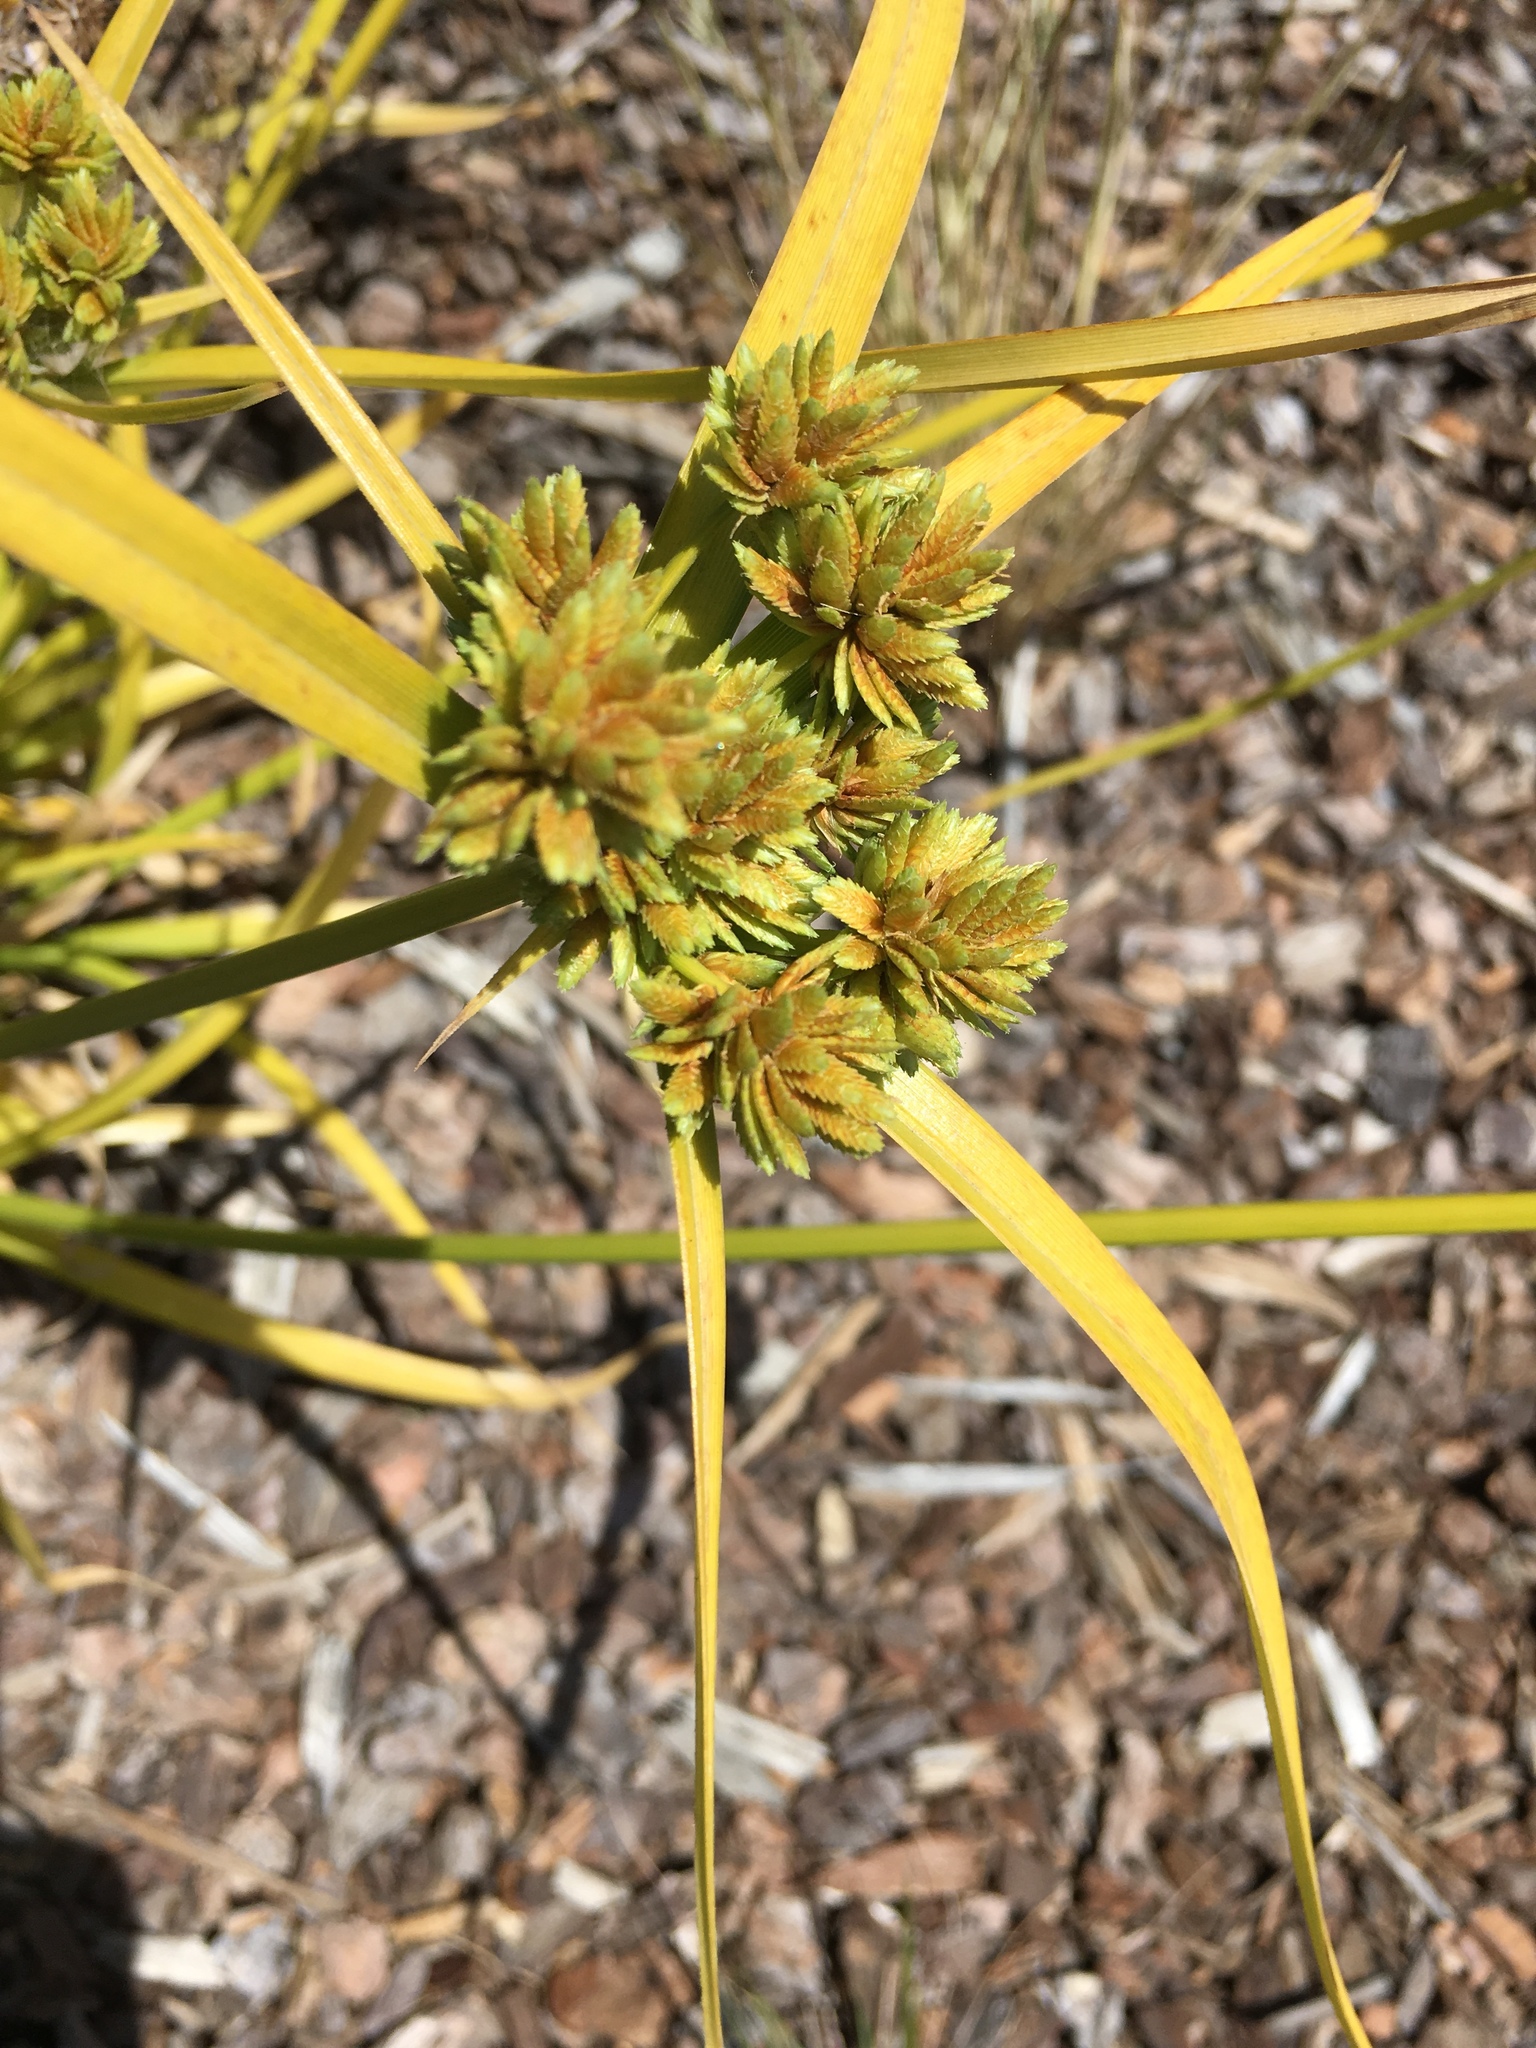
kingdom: Plantae
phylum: Tracheophyta
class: Liliopsida
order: Poales
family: Cyperaceae
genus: Cyperus
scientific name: Cyperus eragrostis
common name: Tall flatsedge
